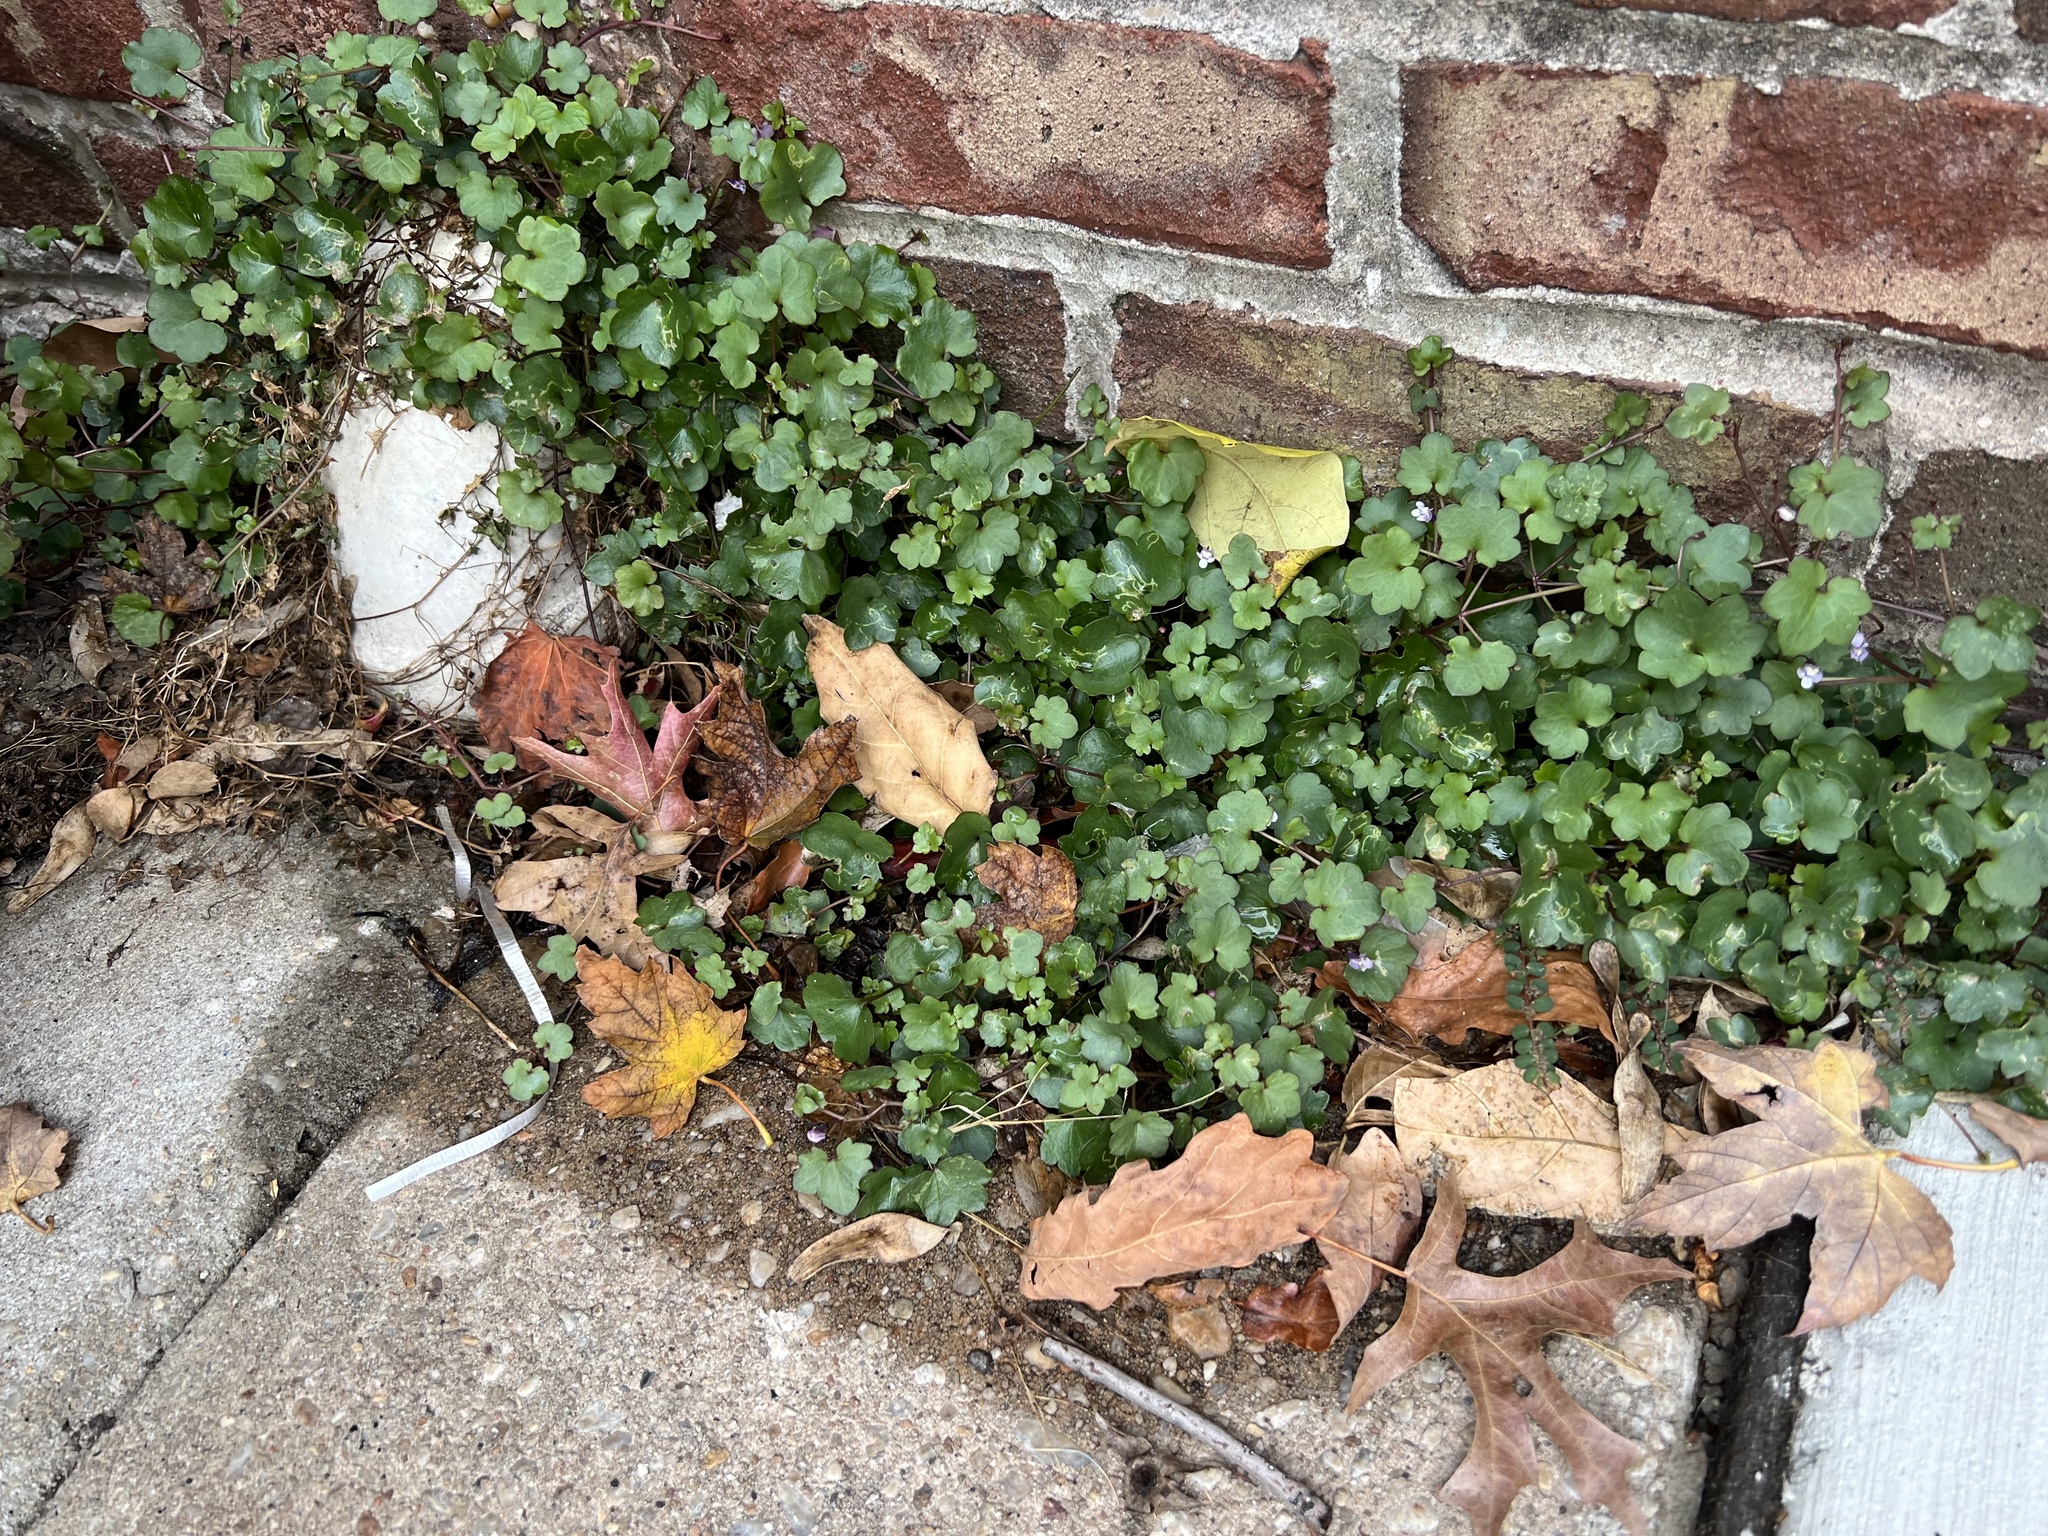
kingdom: Plantae
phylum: Tracheophyta
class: Magnoliopsida
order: Lamiales
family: Plantaginaceae
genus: Cymbalaria
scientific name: Cymbalaria muralis
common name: Ivy-leaved toadflax
